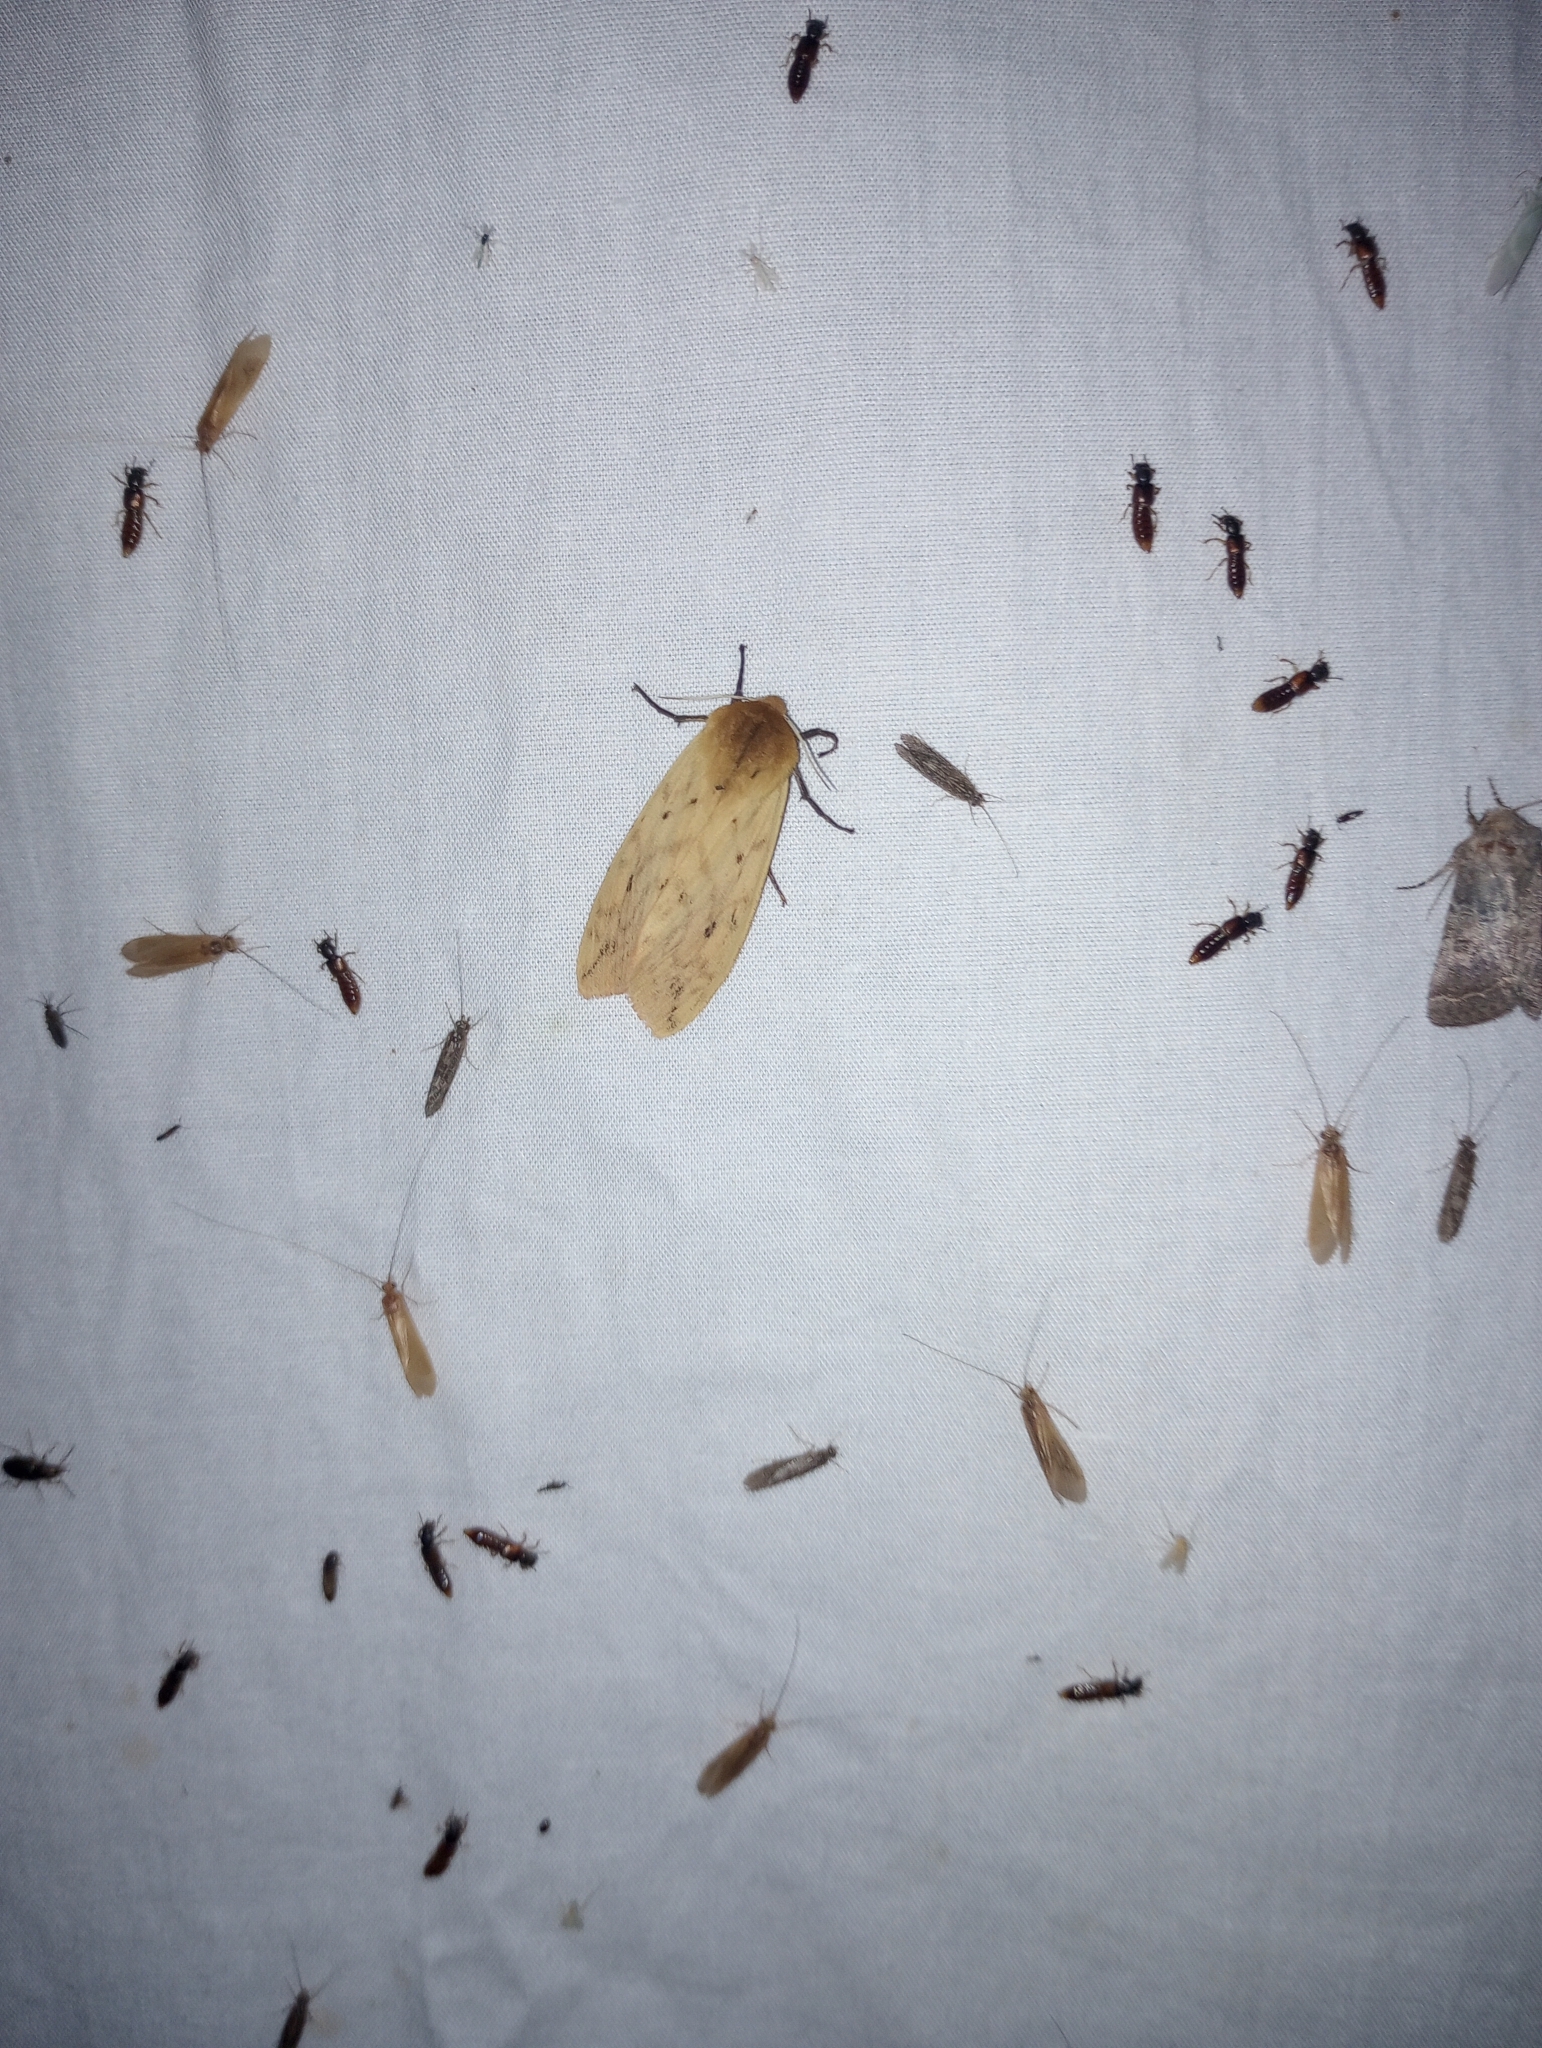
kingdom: Animalia
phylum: Arthropoda
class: Insecta
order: Lepidoptera
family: Erebidae
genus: Pyrrharctia
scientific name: Pyrrharctia isabella
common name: Isabella tiger moth
